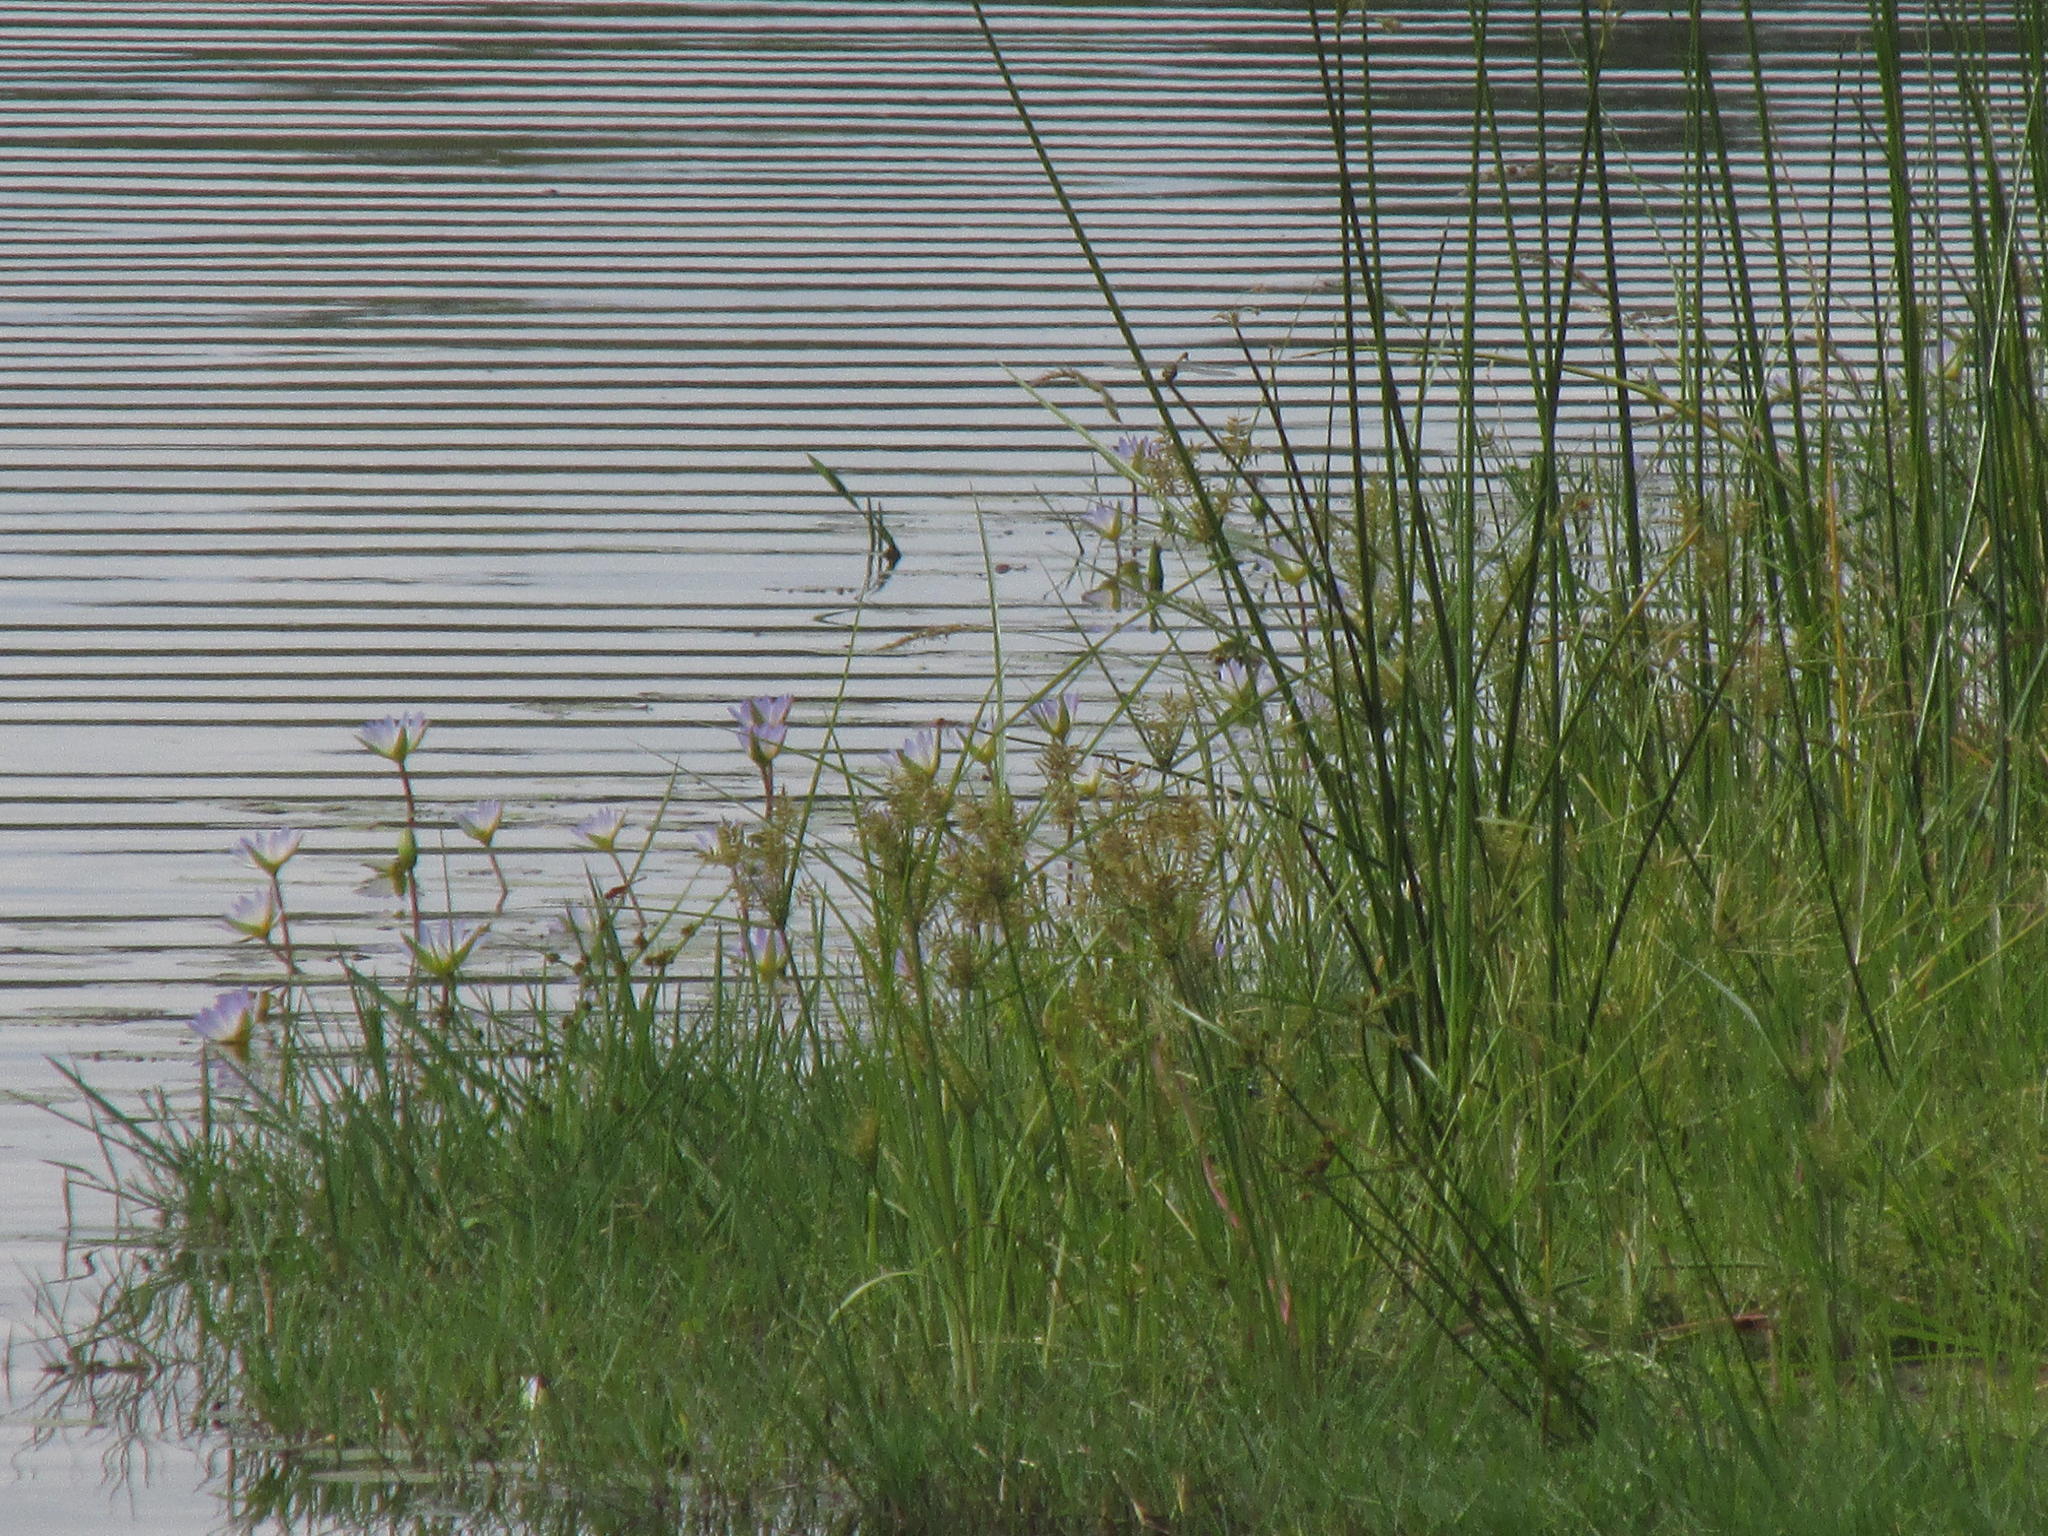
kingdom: Plantae
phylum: Tracheophyta
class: Magnoliopsida
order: Nymphaeales
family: Nymphaeaceae
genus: Nymphaea
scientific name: Nymphaea nouchali
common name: Blue lotus
